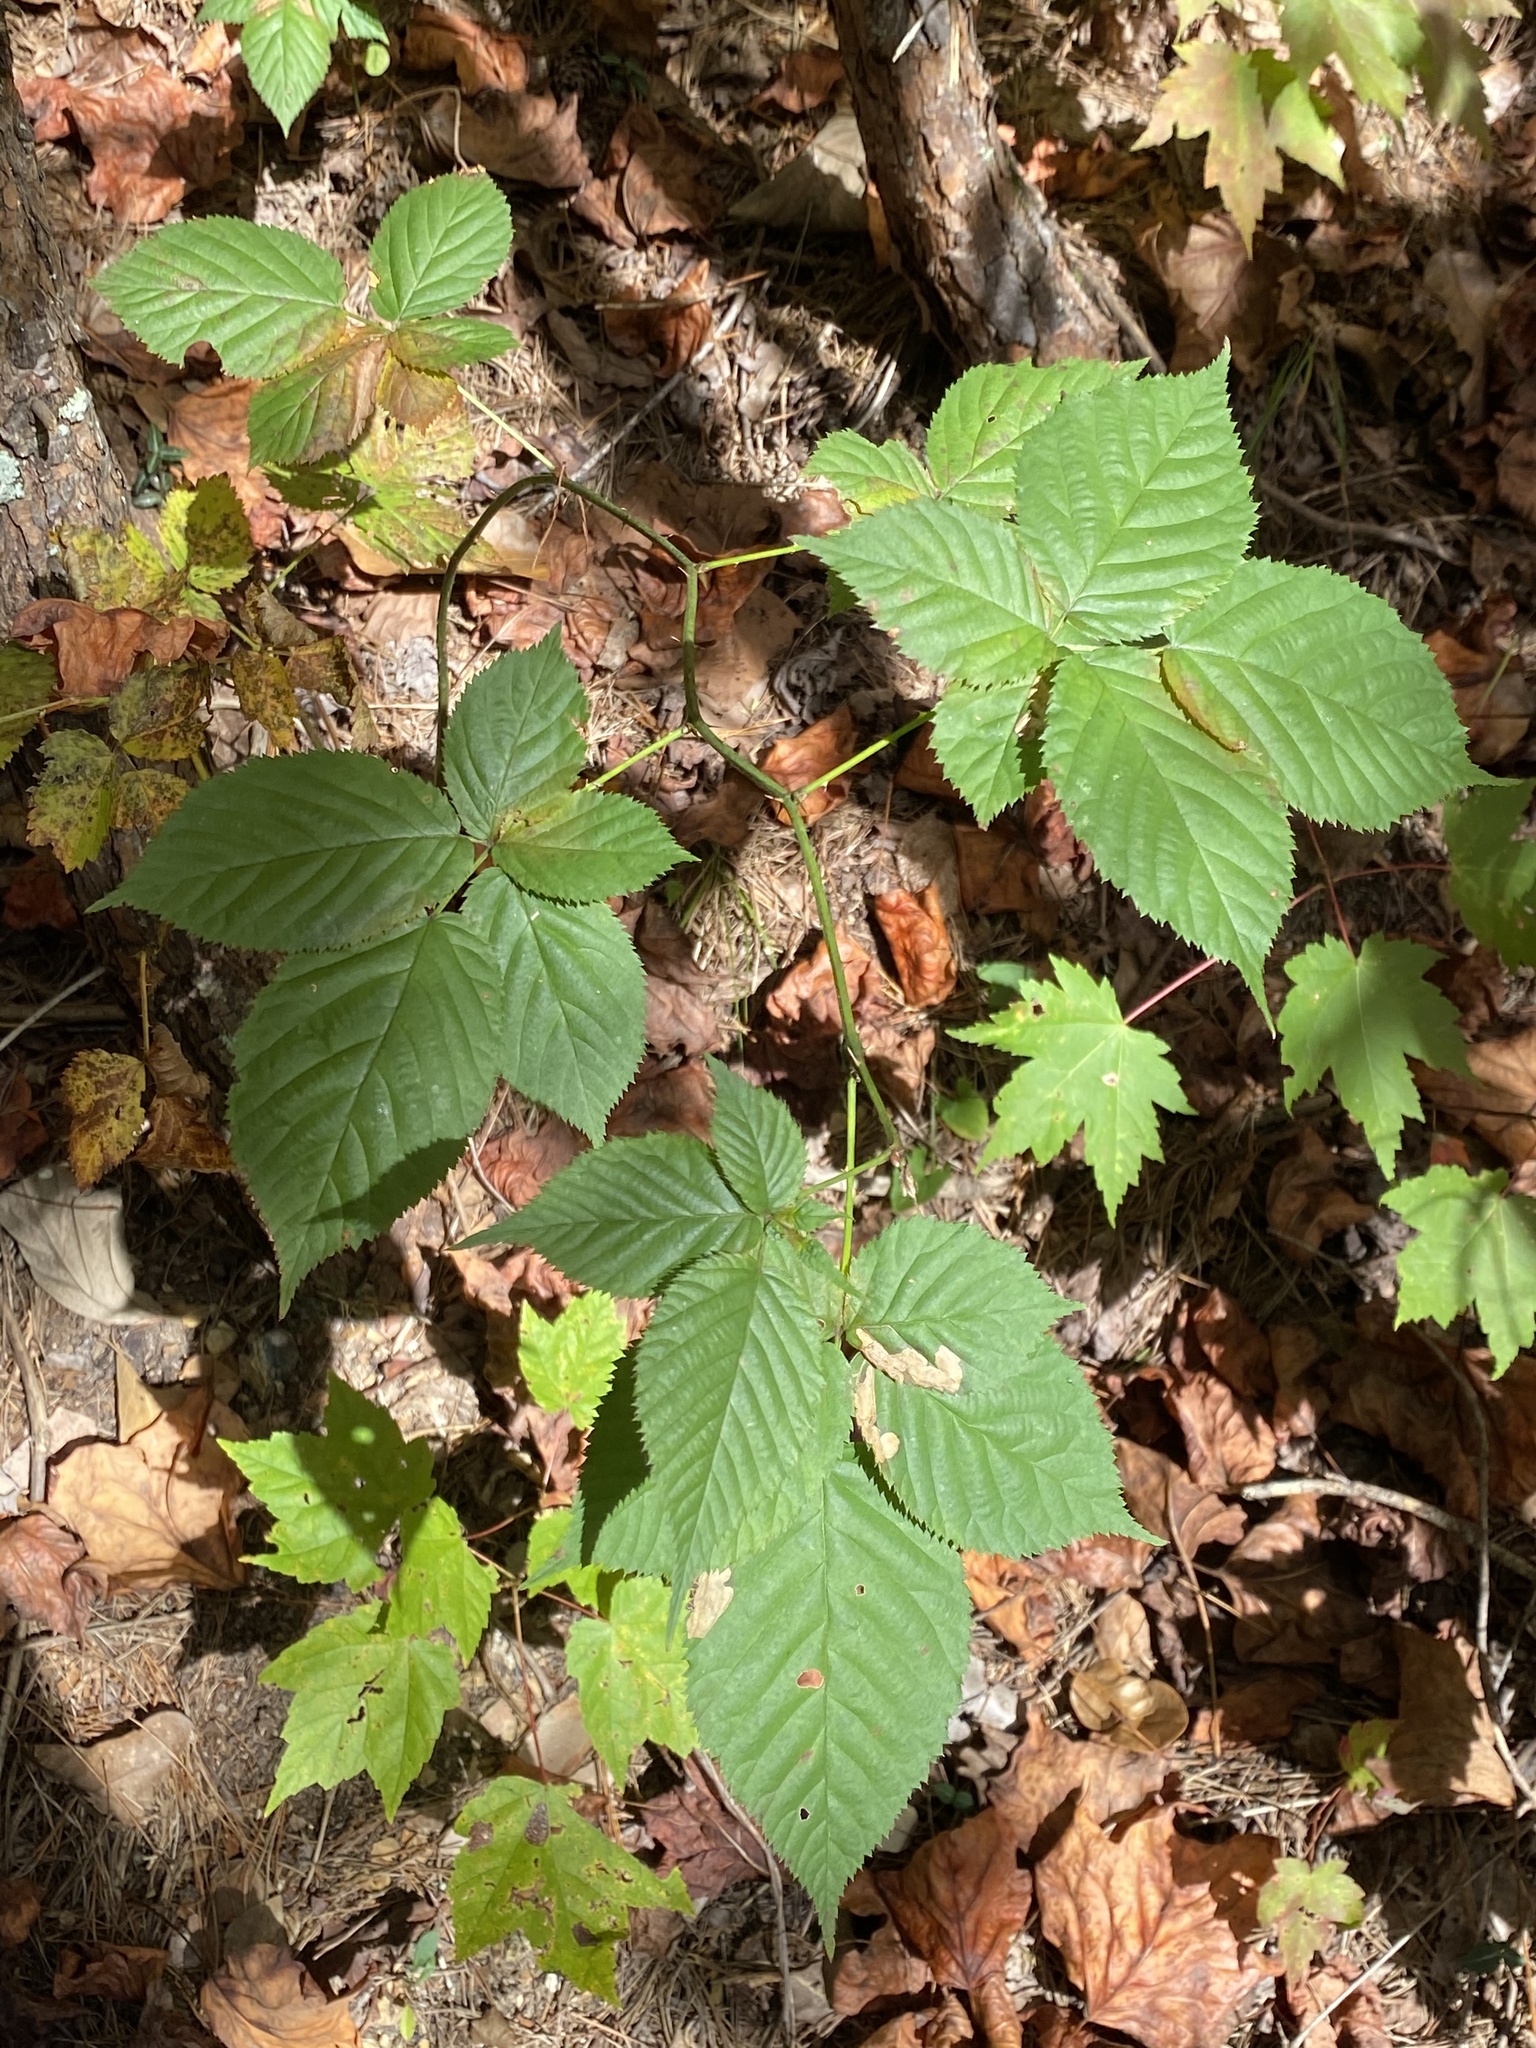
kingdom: Plantae
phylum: Tracheophyta
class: Magnoliopsida
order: Rosales
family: Rosaceae
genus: Rubus
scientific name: Rubus allegheniensis
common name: Allegheny blackberry
